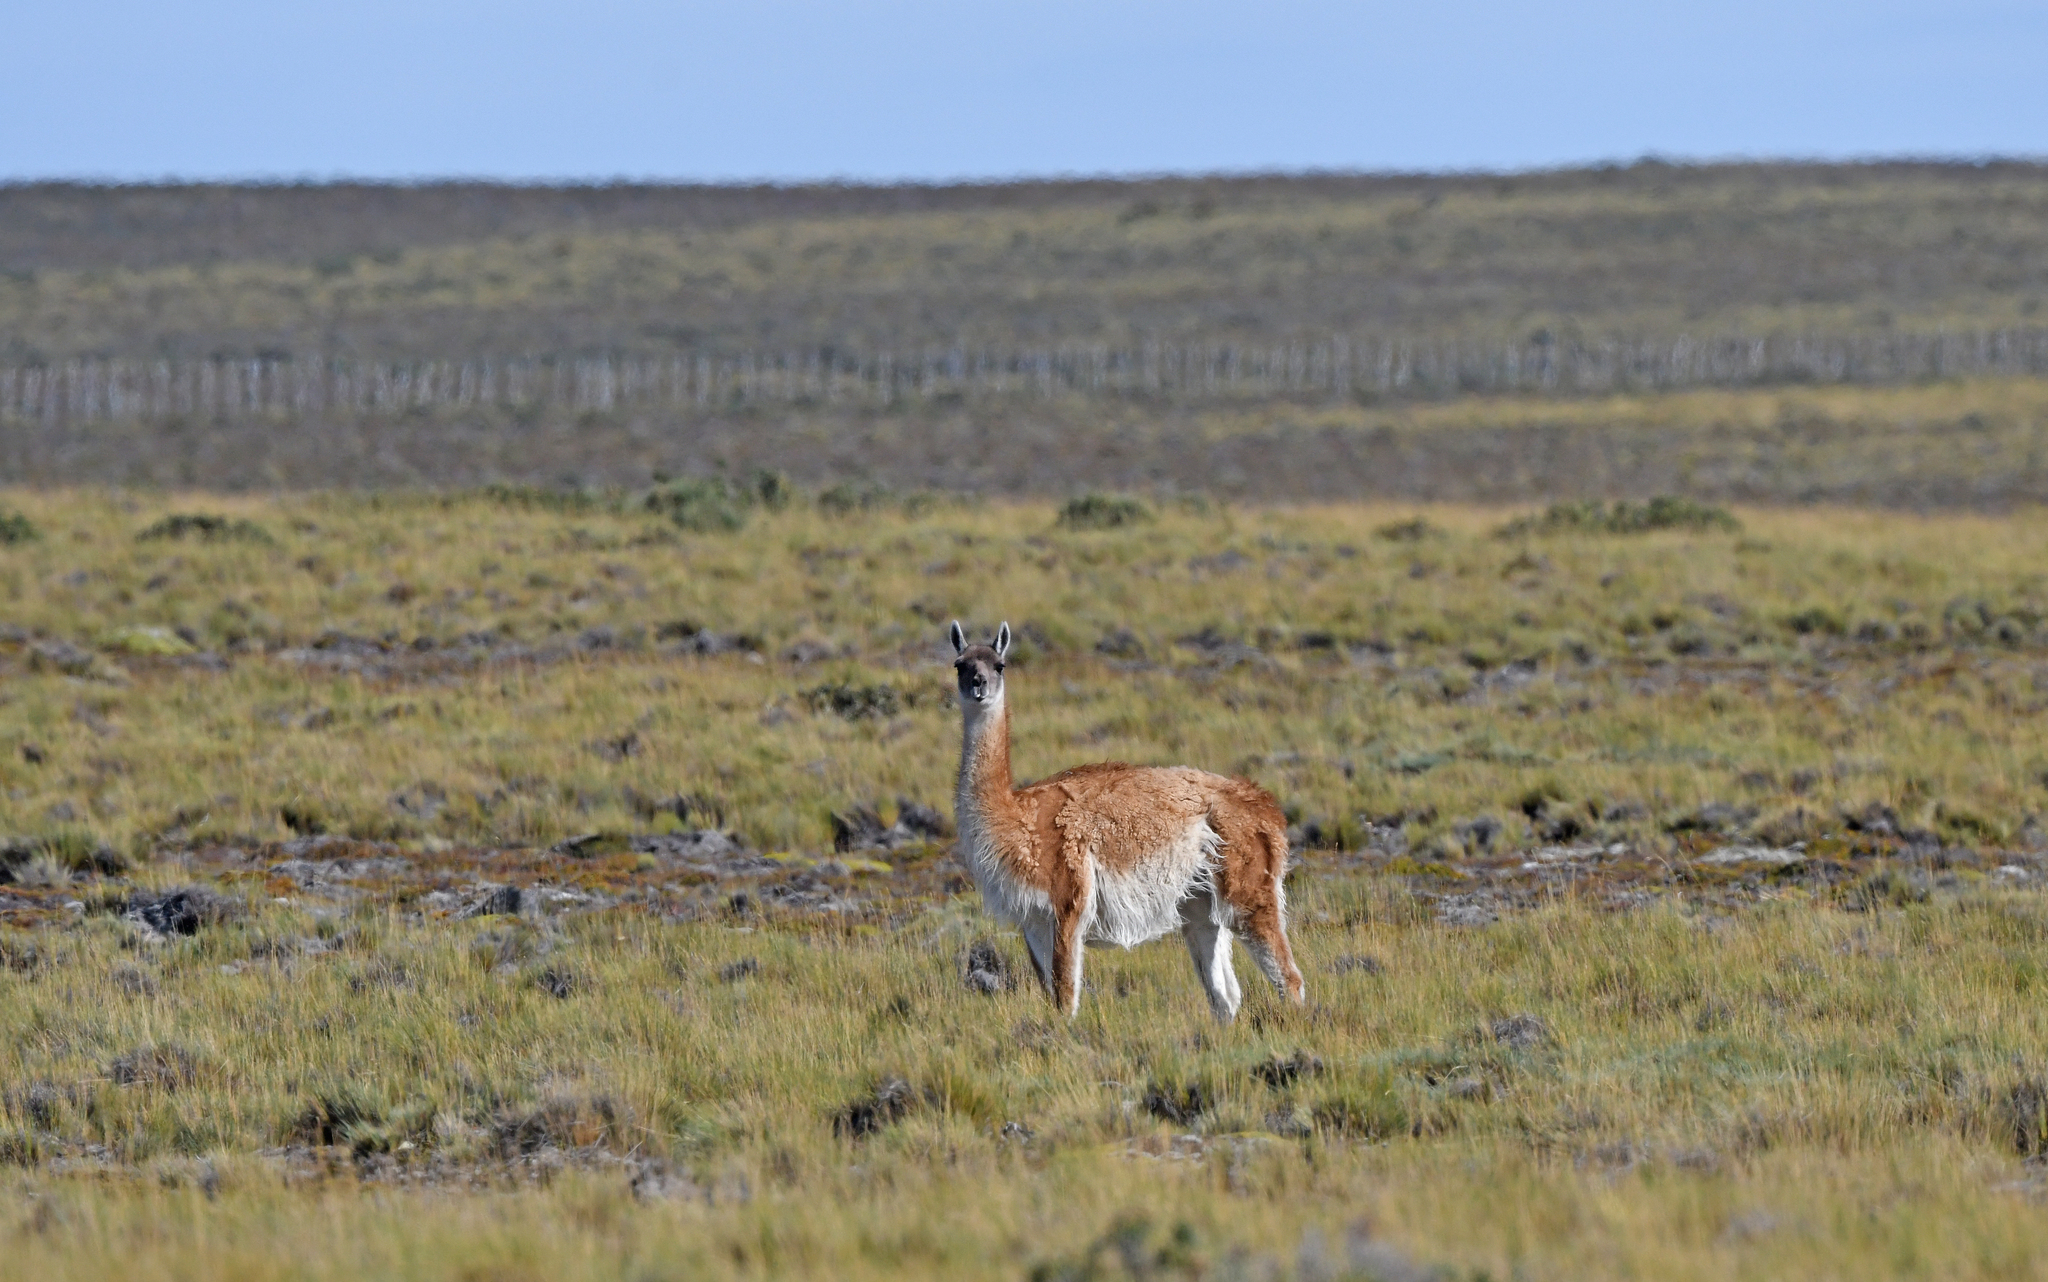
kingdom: Animalia
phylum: Chordata
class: Mammalia
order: Artiodactyla
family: Camelidae
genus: Lama
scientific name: Lama glama
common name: Llama
